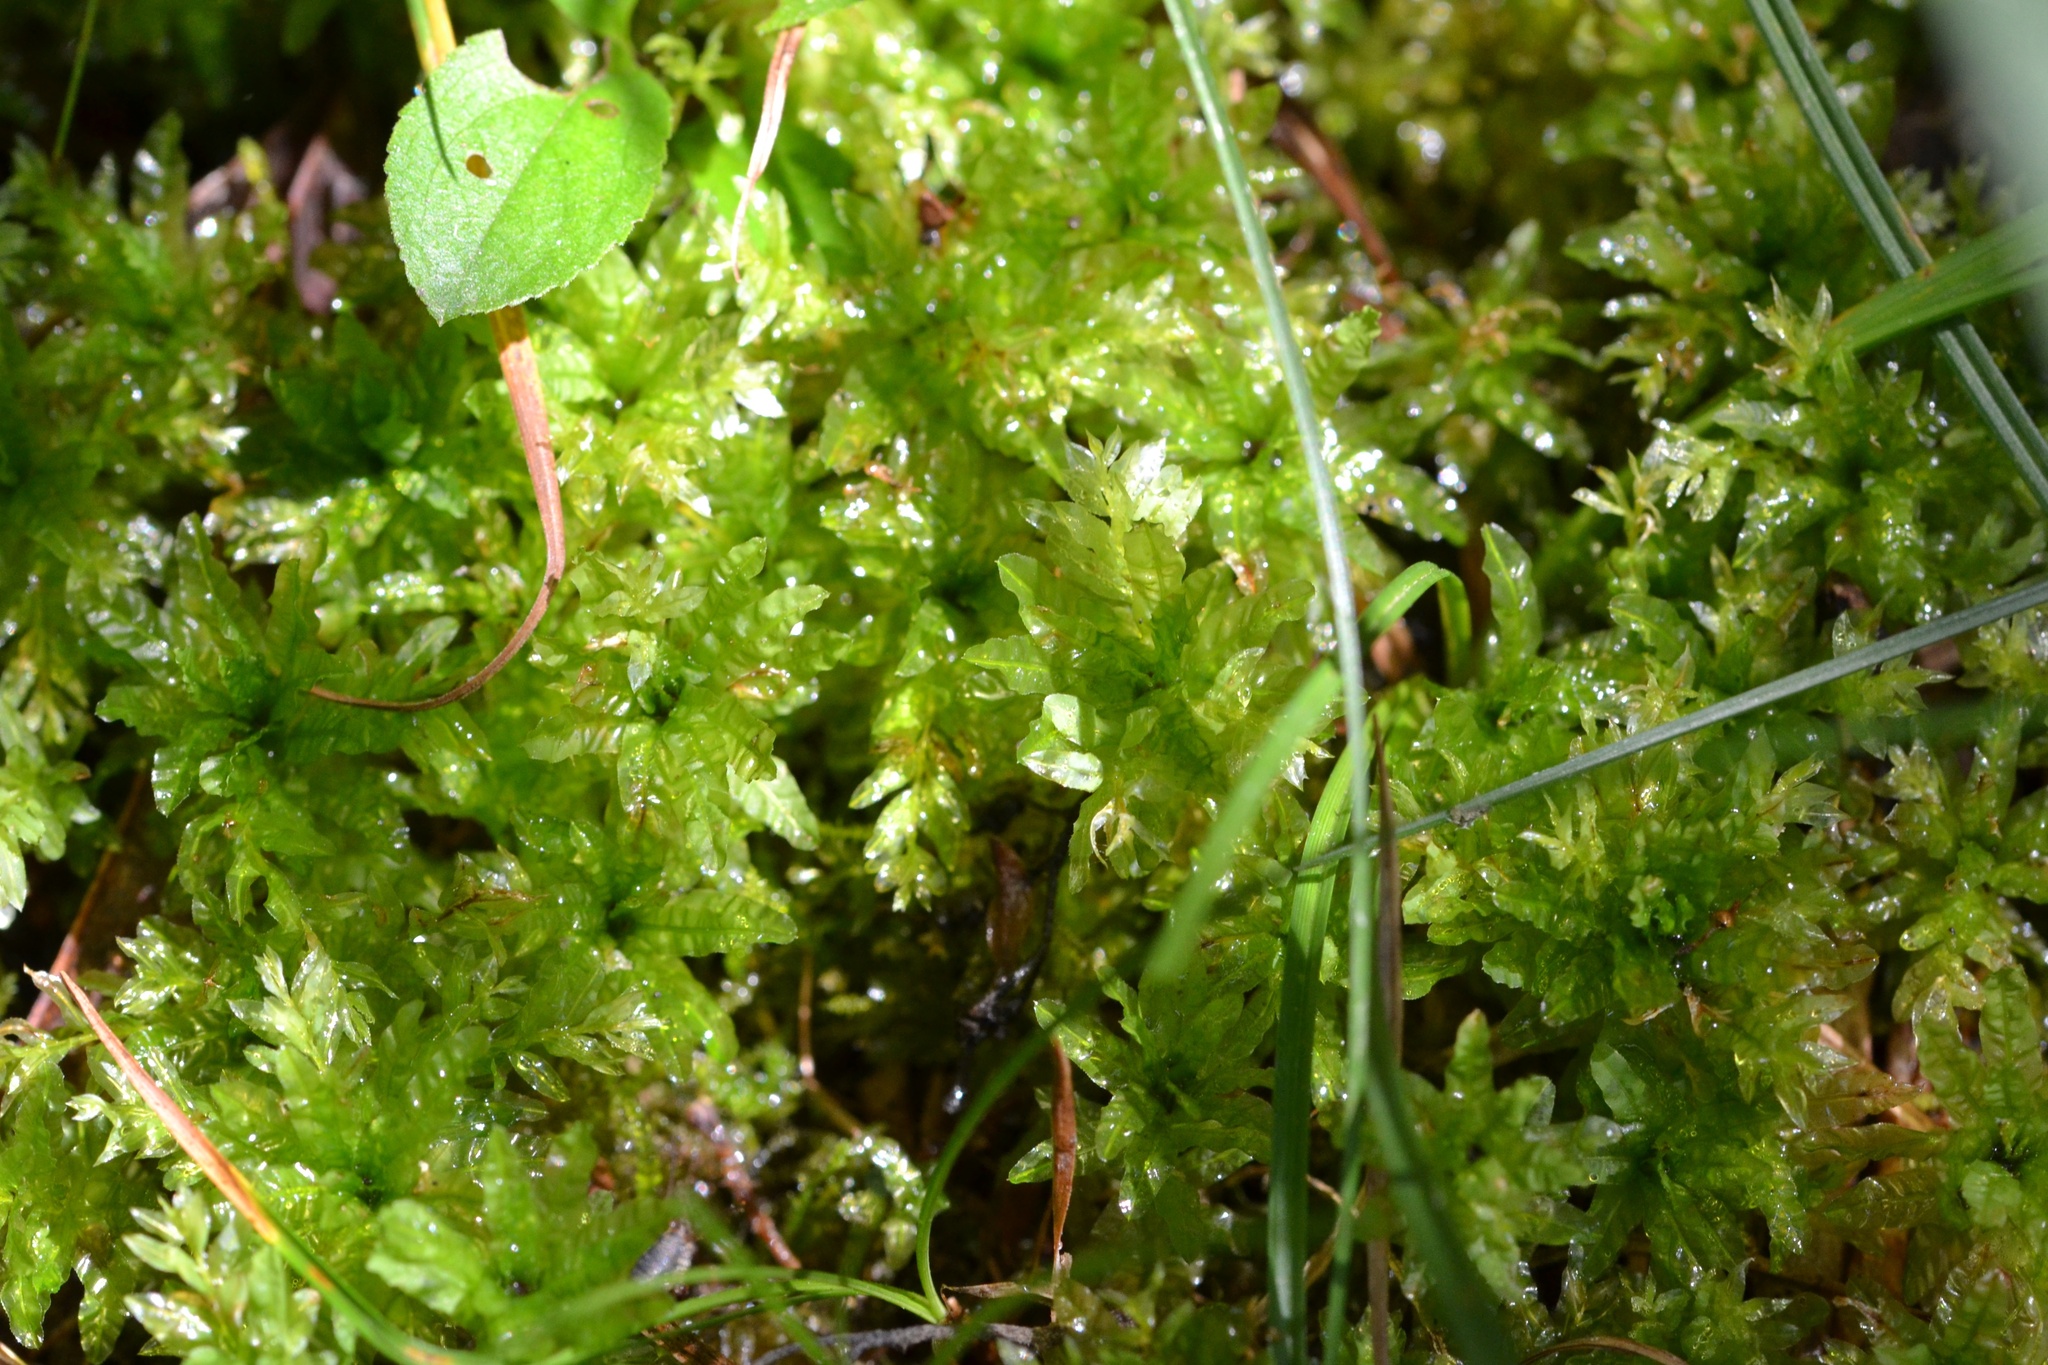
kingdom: Plantae
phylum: Bryophyta
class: Bryopsida
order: Bryales
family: Mniaceae
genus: Plagiomnium
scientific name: Plagiomnium undulatum
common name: Hart's-tongue thyme-moss
